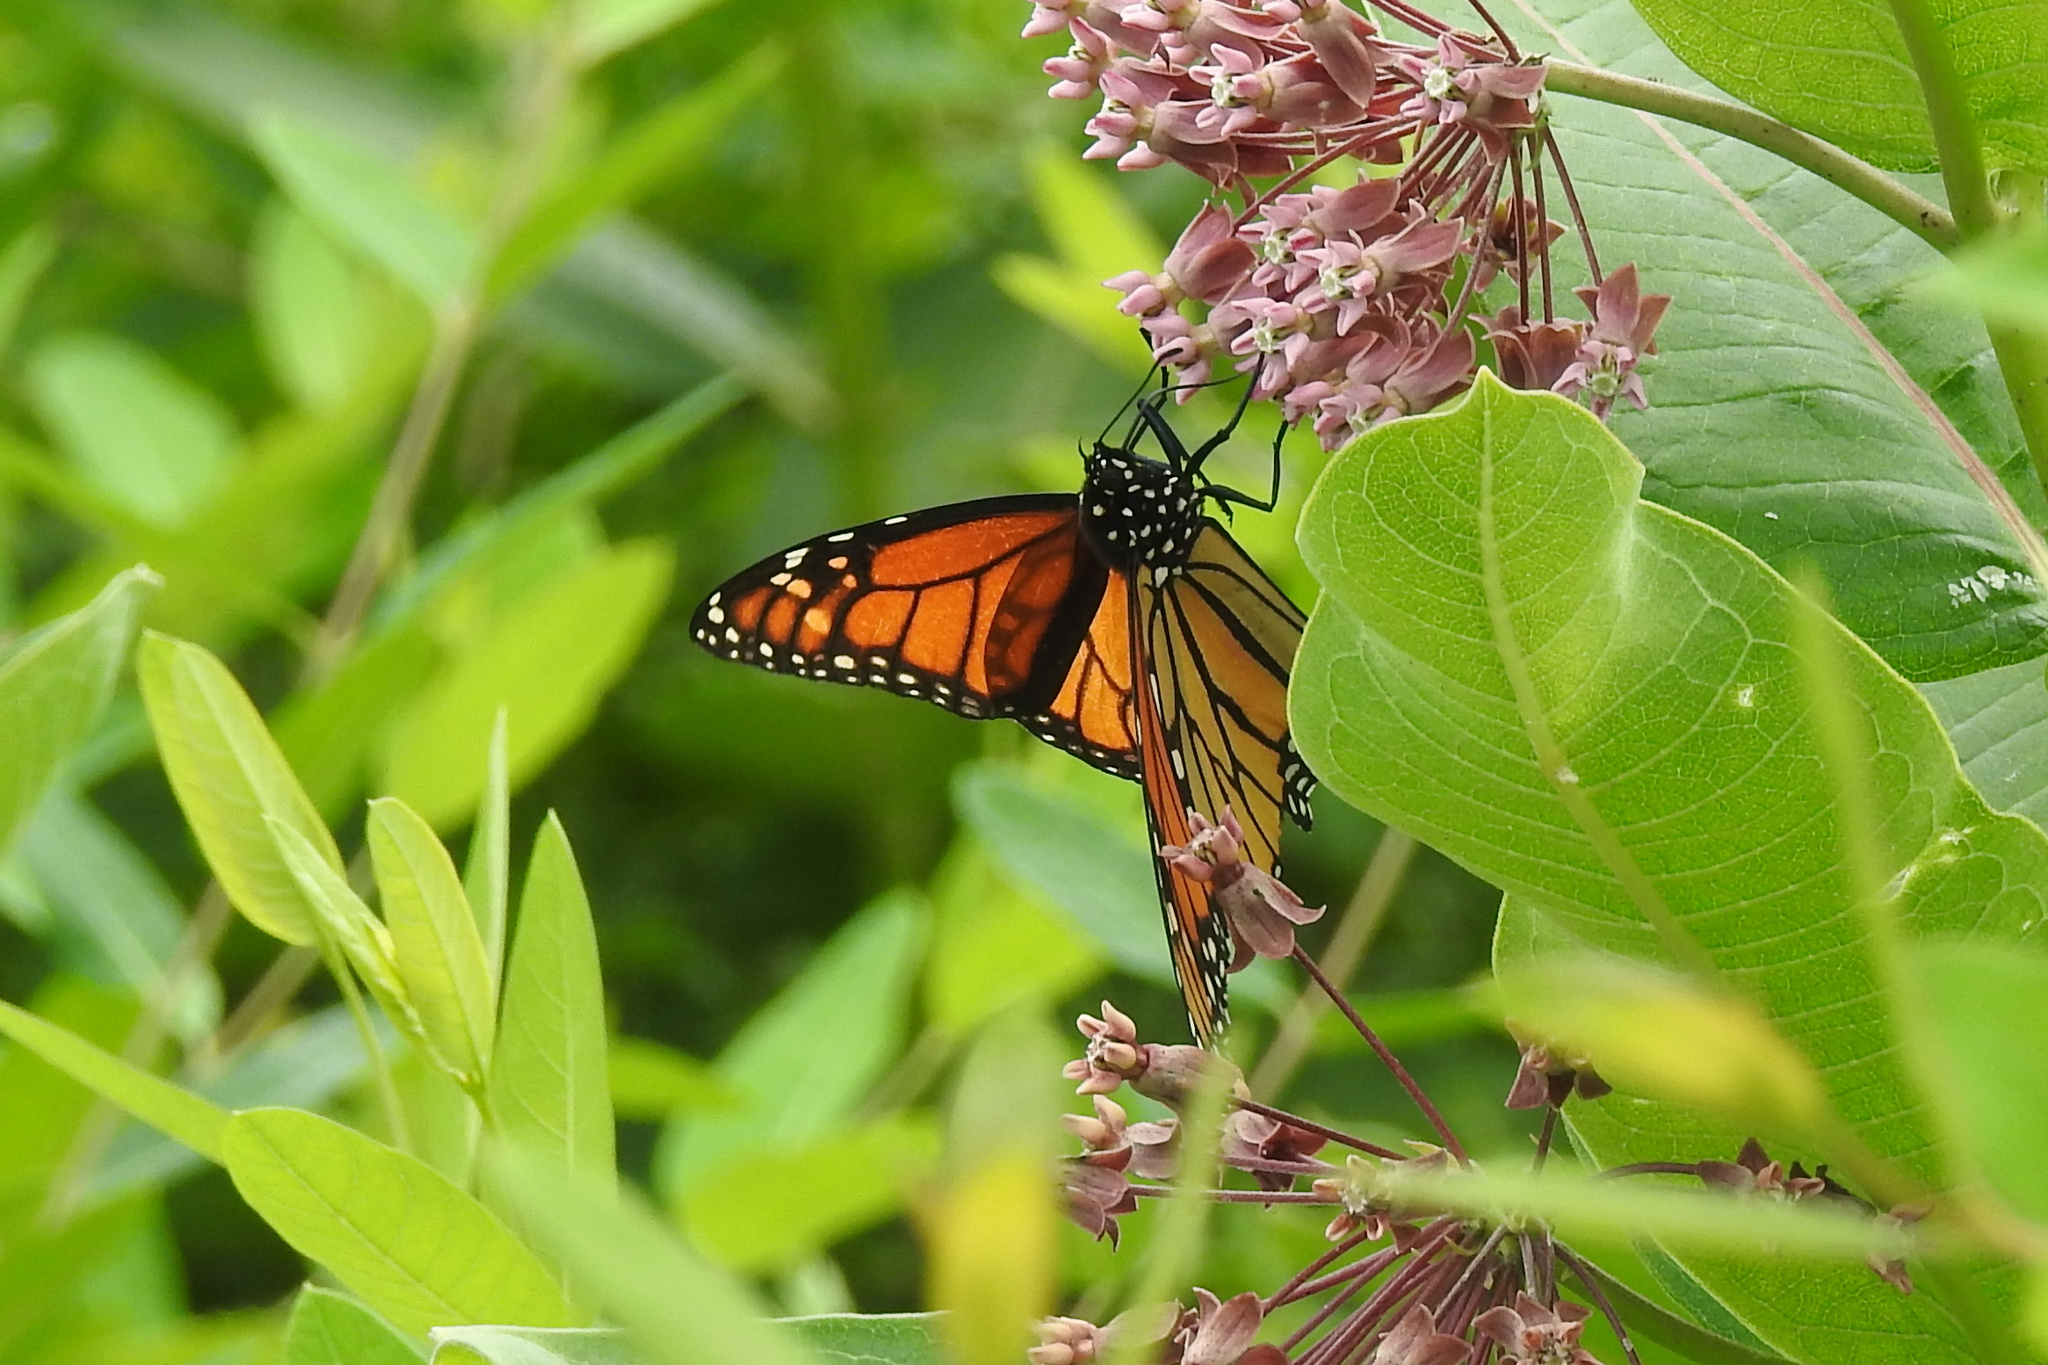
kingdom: Animalia
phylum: Arthropoda
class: Insecta
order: Lepidoptera
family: Nymphalidae
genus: Danaus
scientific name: Danaus plexippus
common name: Monarch
